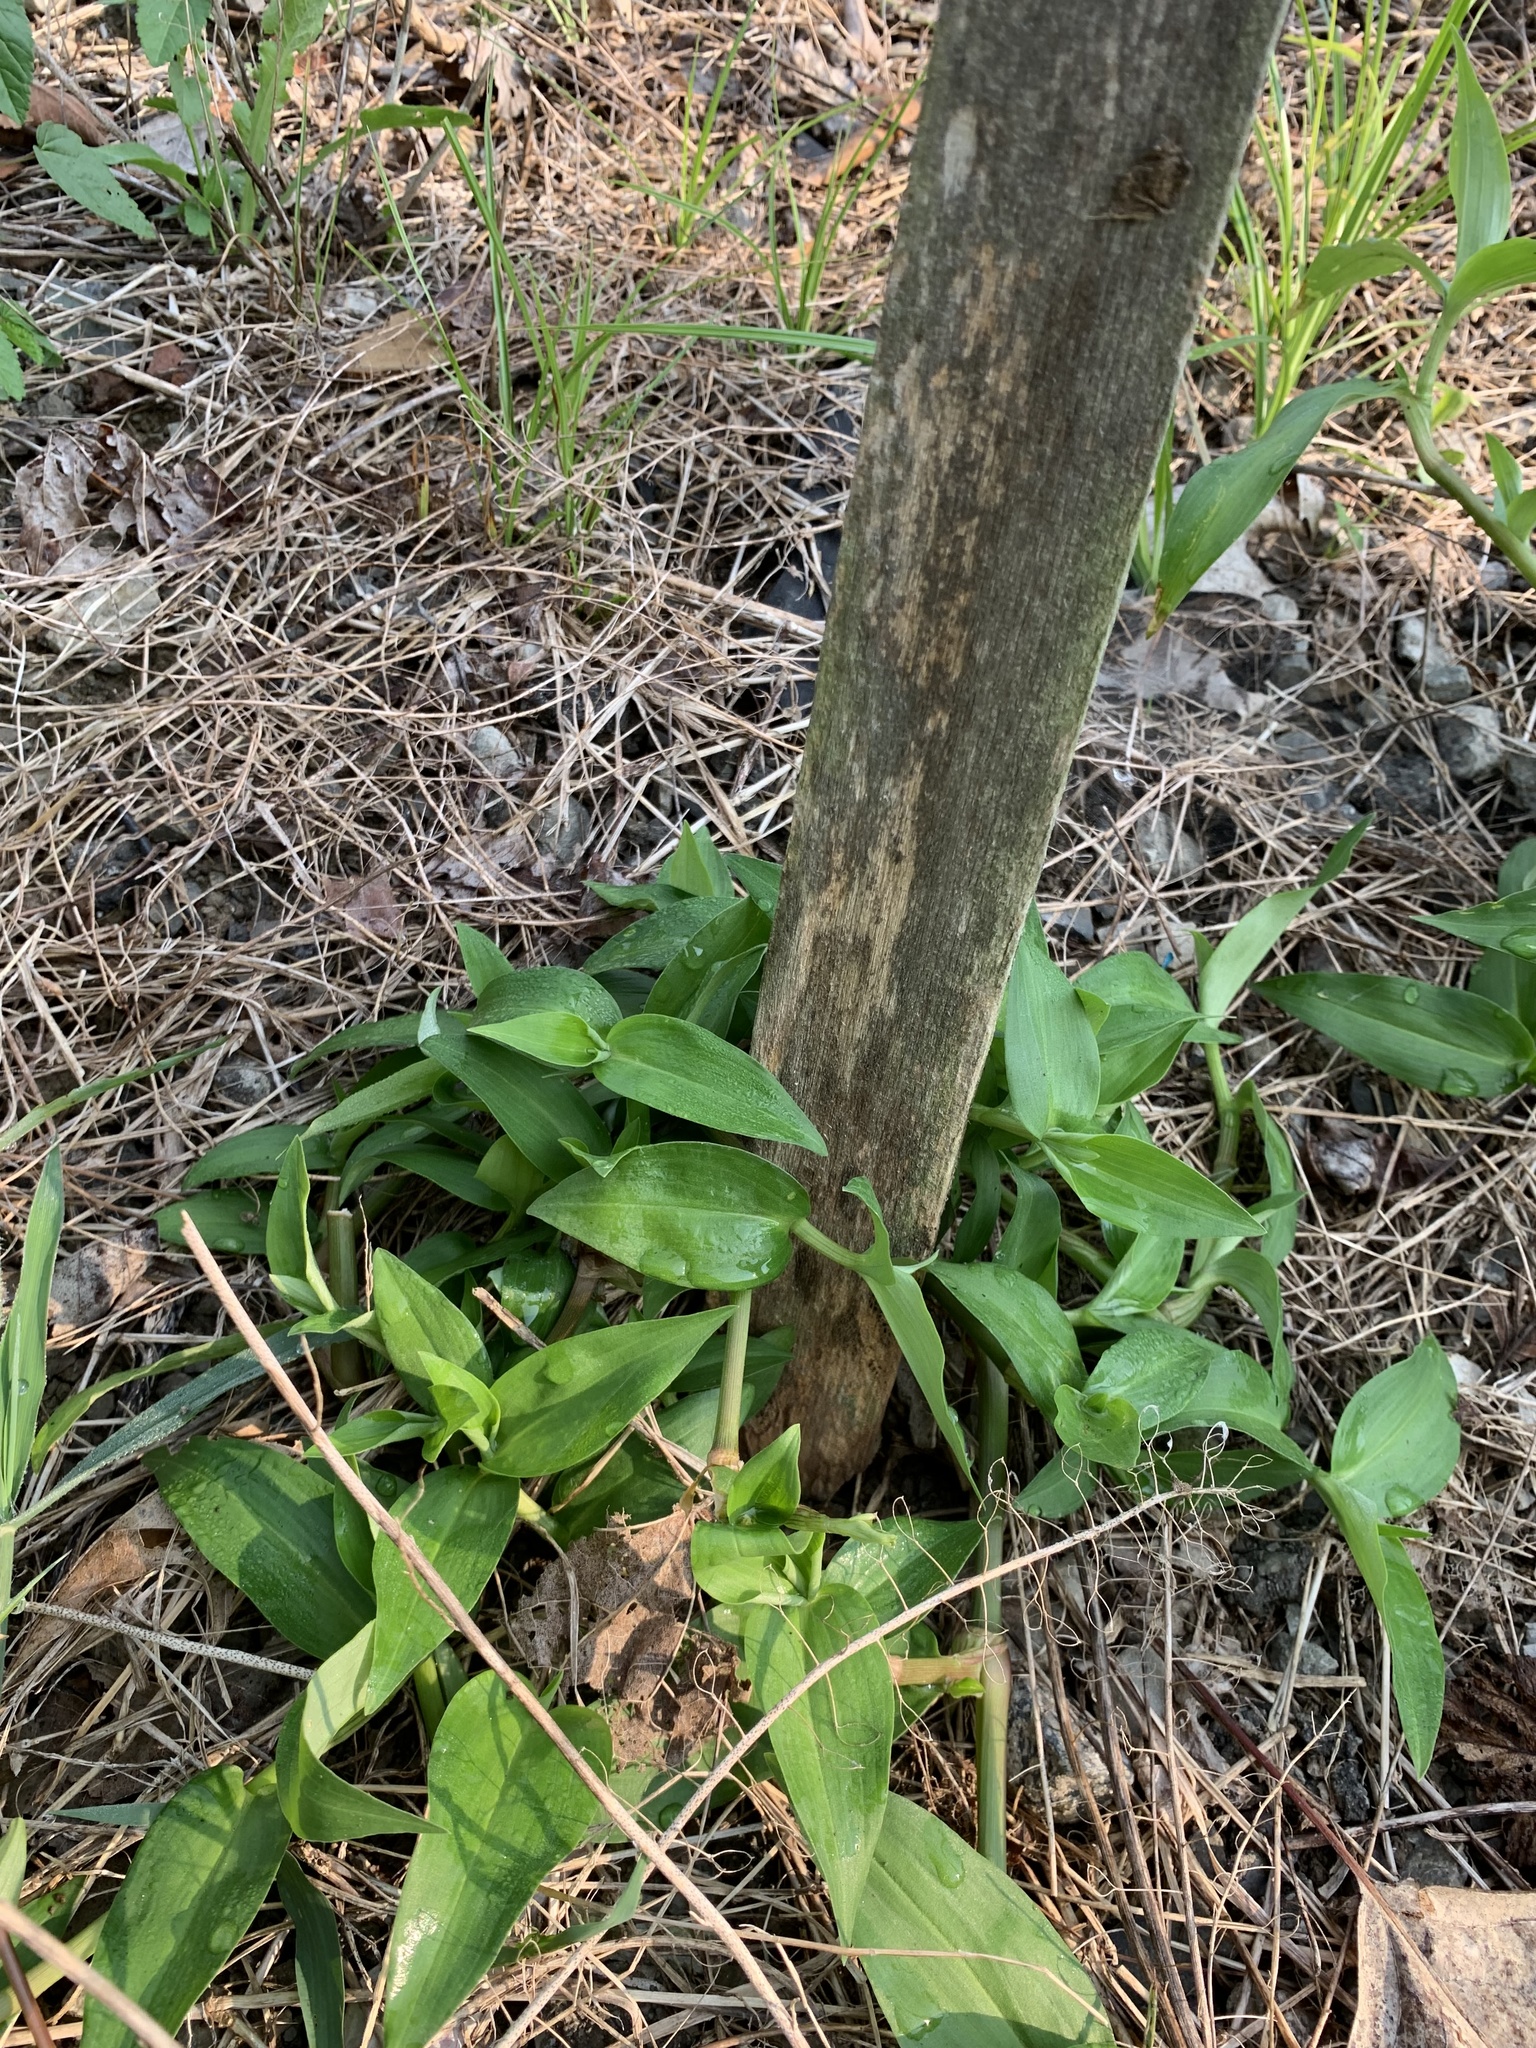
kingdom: Plantae
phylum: Tracheophyta
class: Liliopsida
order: Commelinales
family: Commelinaceae
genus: Commelina
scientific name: Commelina communis
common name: Asiatic dayflower
